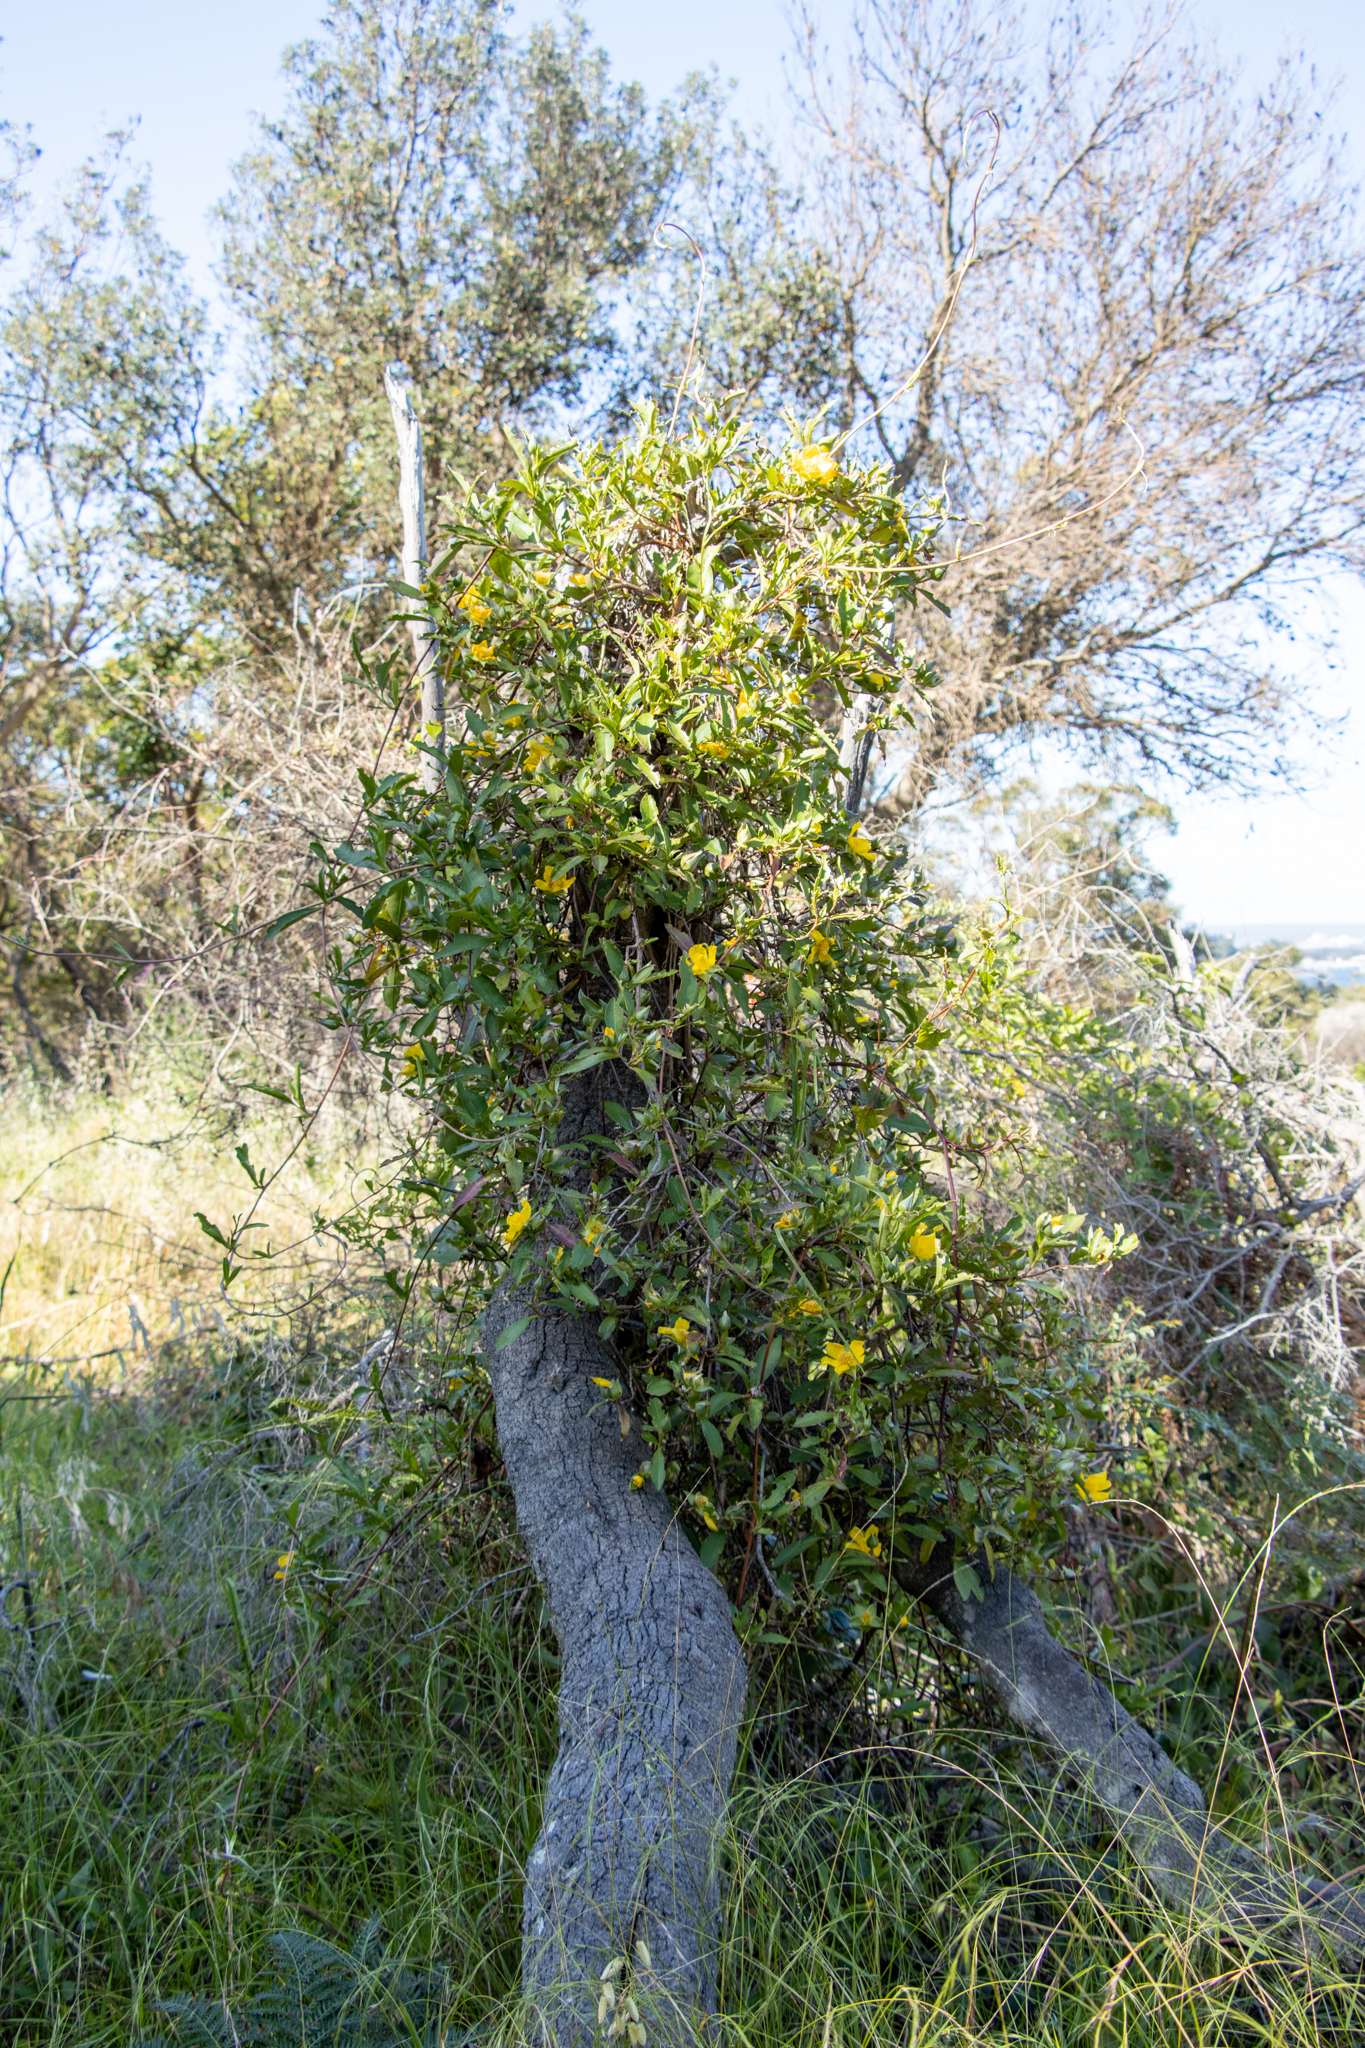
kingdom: Plantae
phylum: Tracheophyta
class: Magnoliopsida
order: Dilleniales
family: Dilleniaceae
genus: Hibbertia
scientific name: Hibbertia scandens
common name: Climbing guinea-flower
